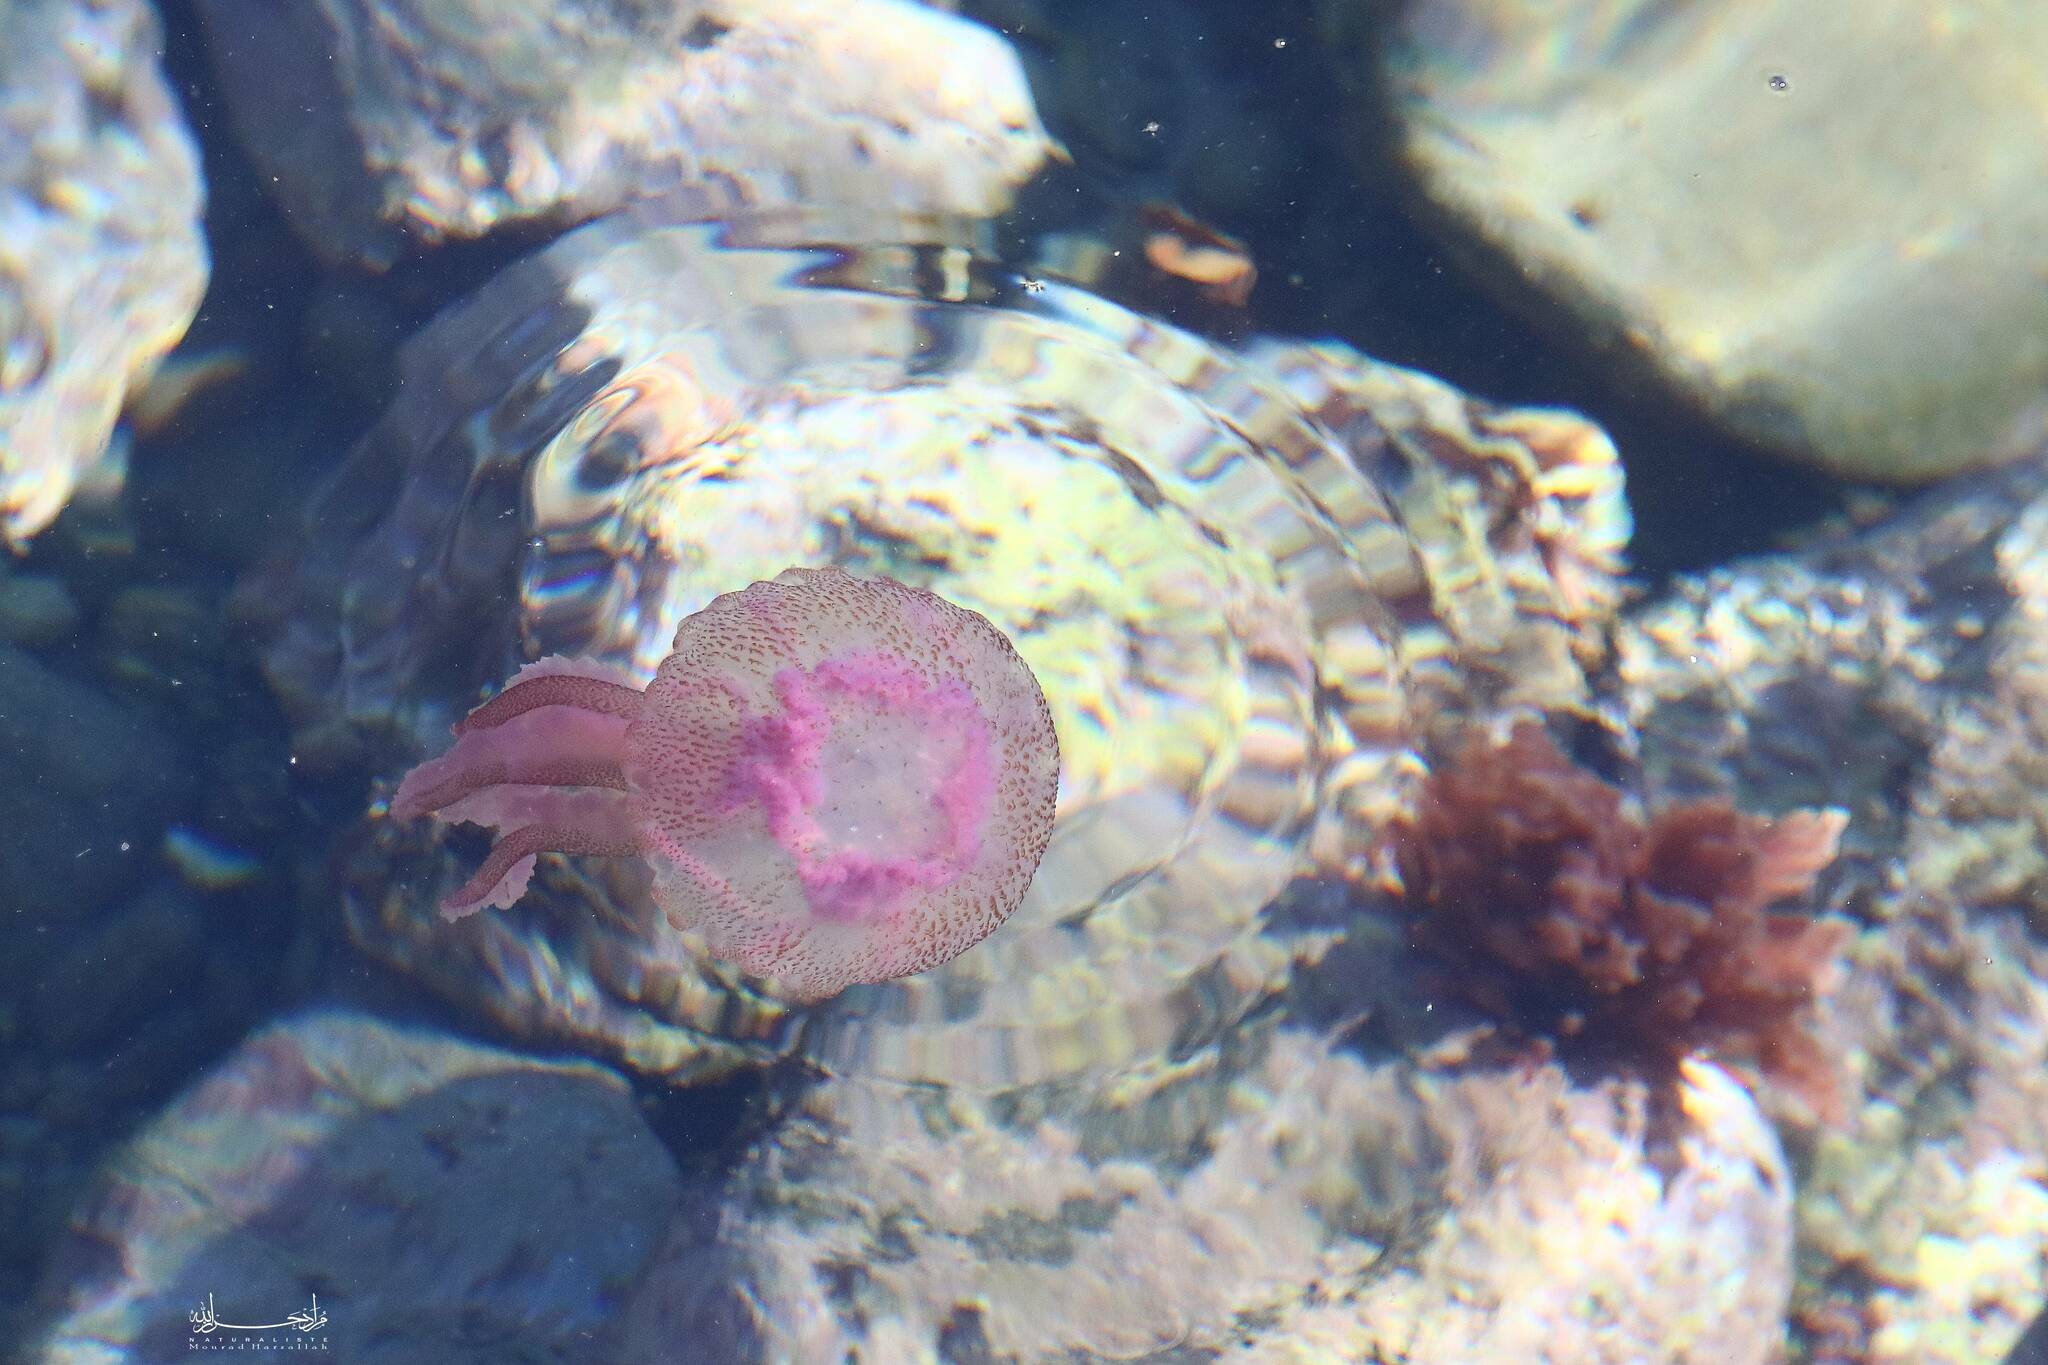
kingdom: Animalia
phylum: Cnidaria
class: Scyphozoa
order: Semaeostomeae
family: Pelagiidae
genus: Pelagia
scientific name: Pelagia noctiluca
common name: Mauve stinger
